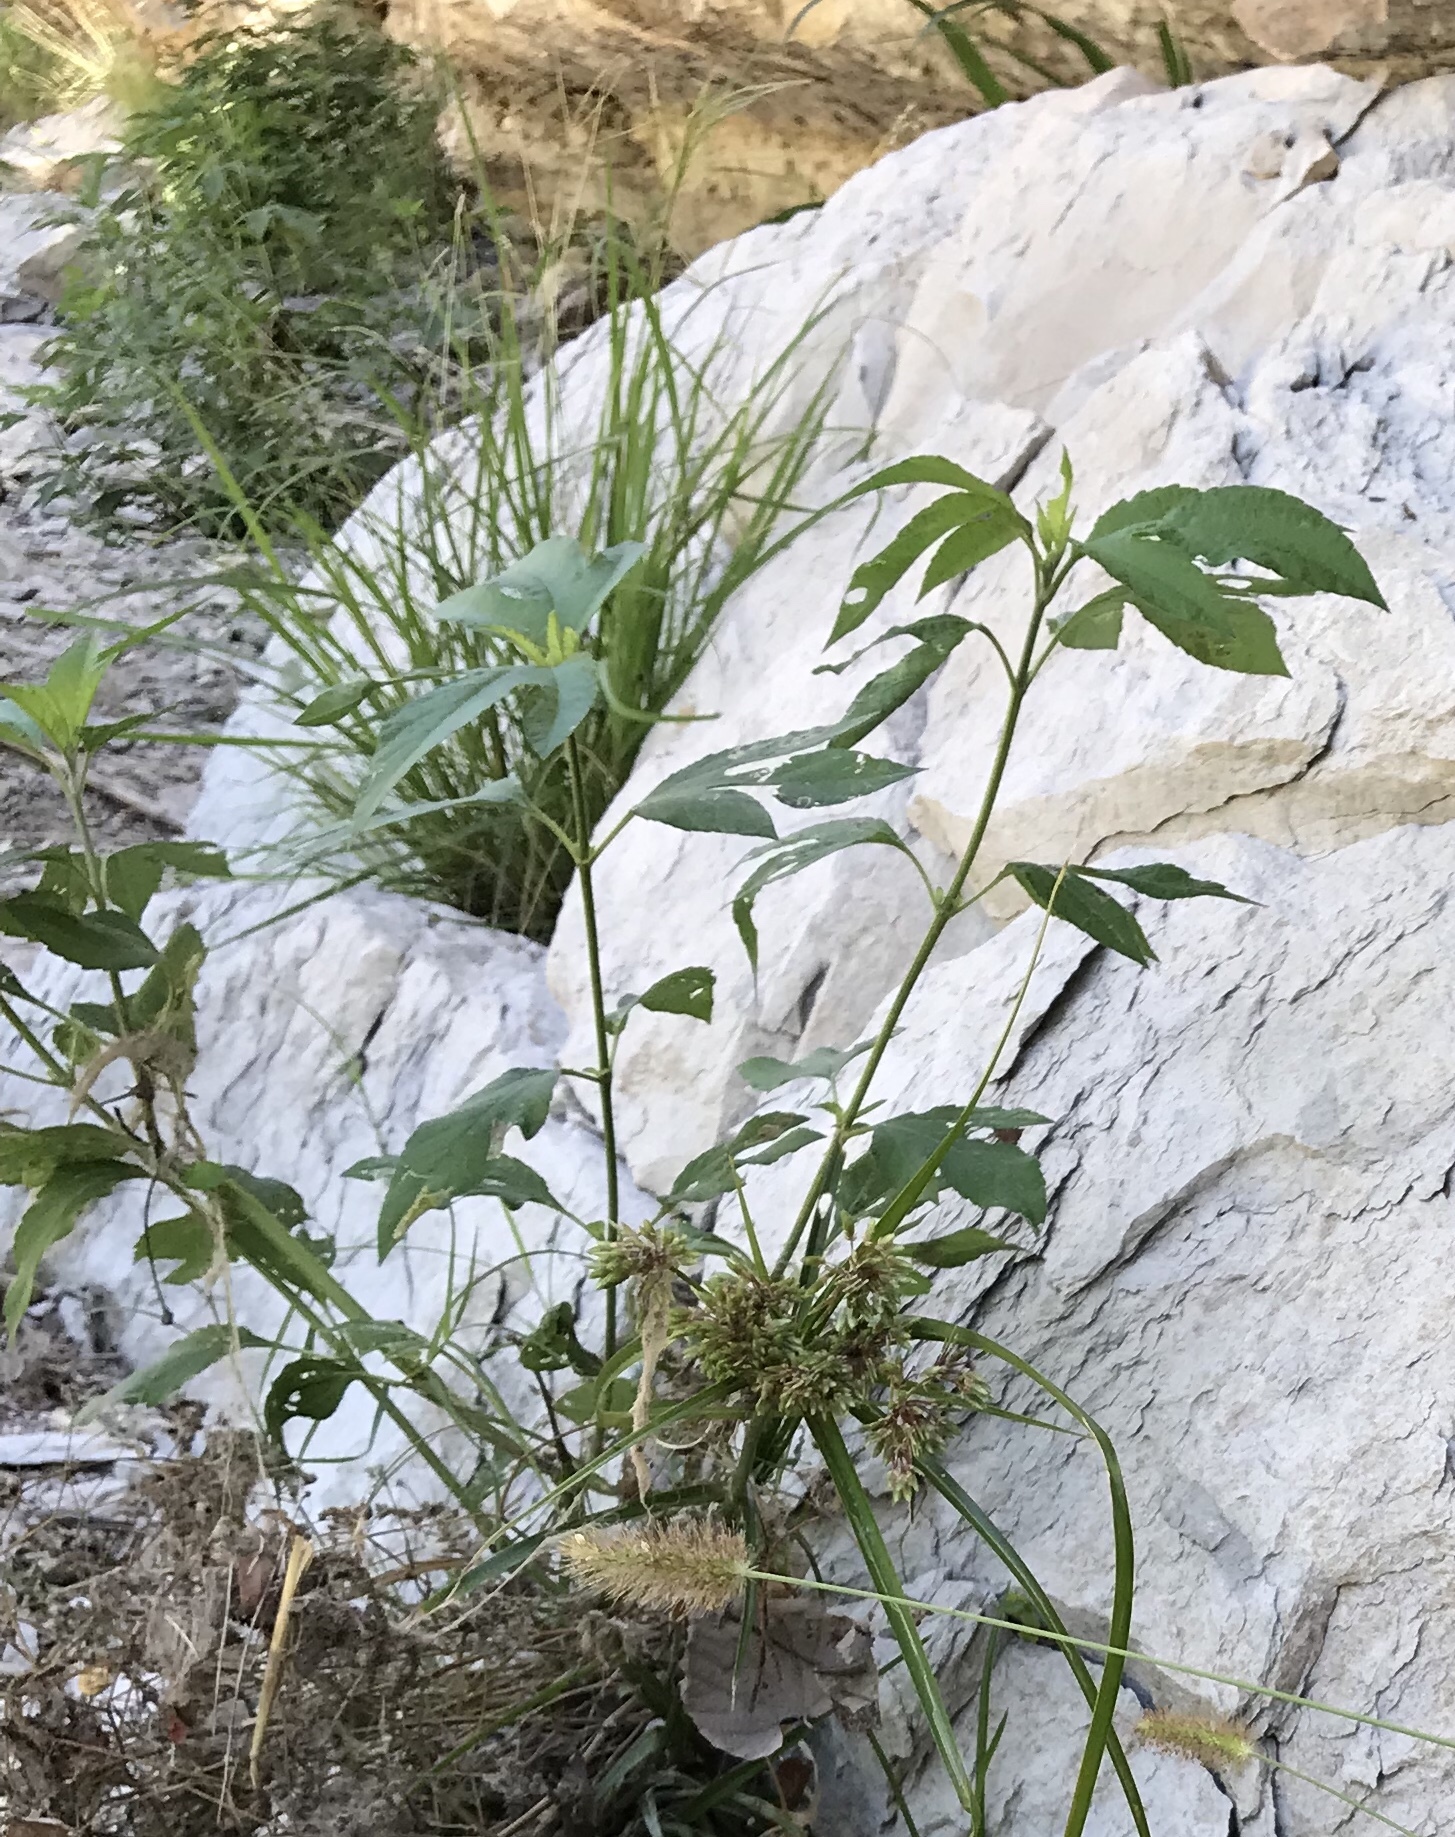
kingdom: Plantae
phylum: Tracheophyta
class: Magnoliopsida
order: Asterales
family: Asteraceae
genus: Ambrosia
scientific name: Ambrosia trifida
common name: Giant ragweed
